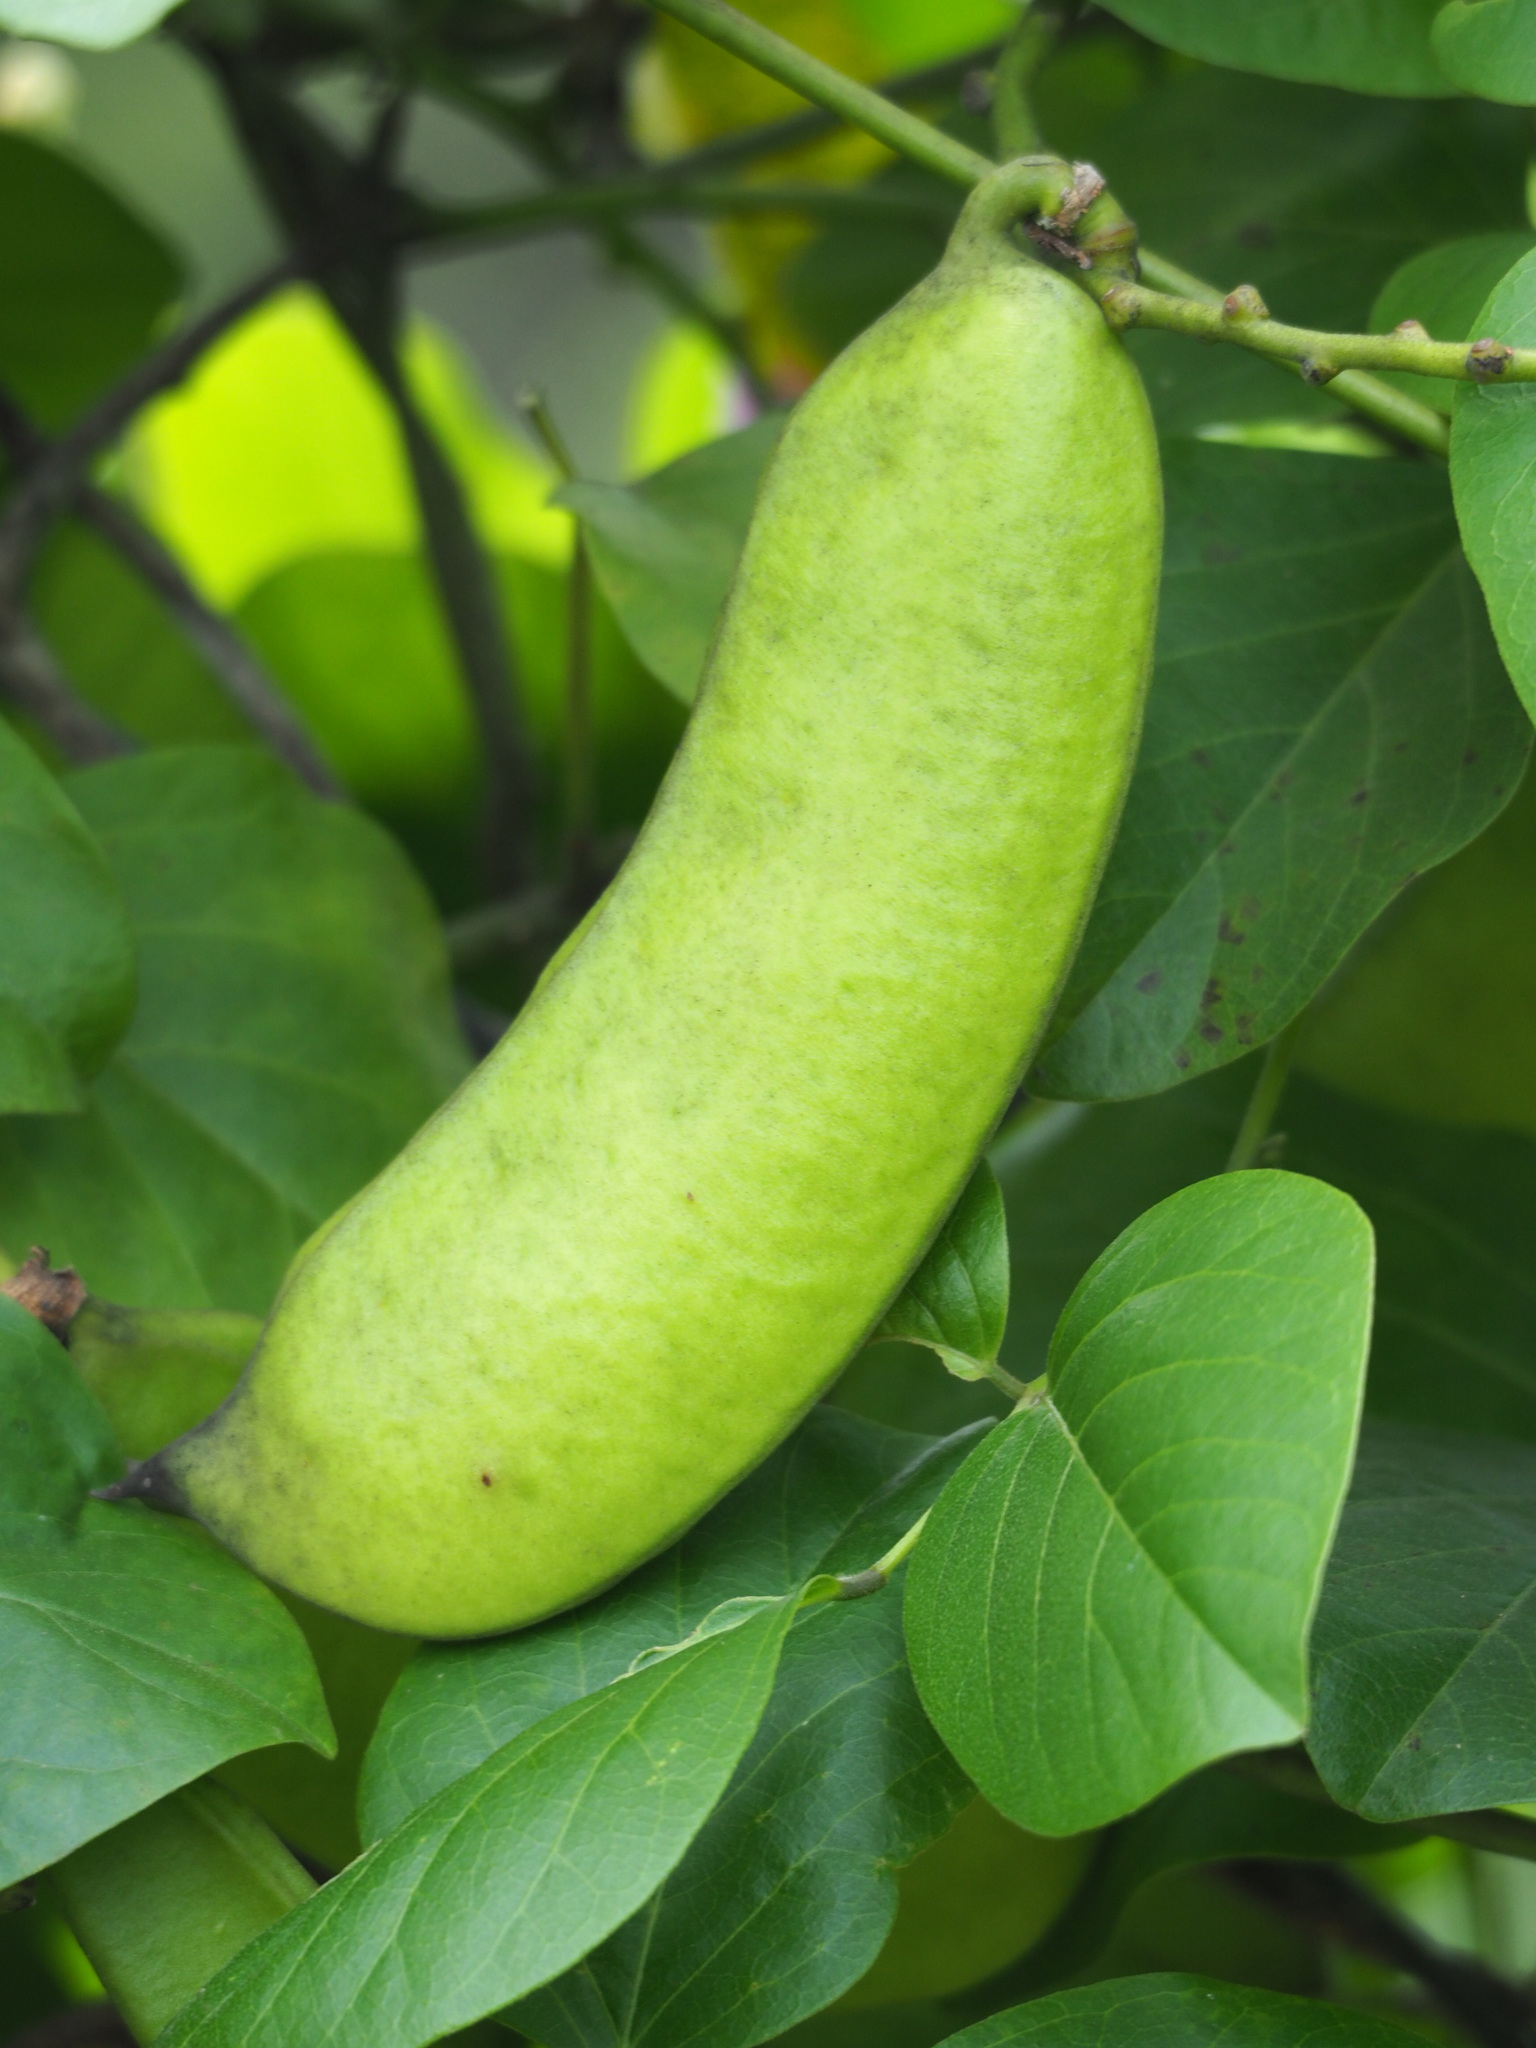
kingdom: Plantae
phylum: Tracheophyta
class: Magnoliopsida
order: Fabales
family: Fabaceae
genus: Canavalia
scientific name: Canavalia lineata
